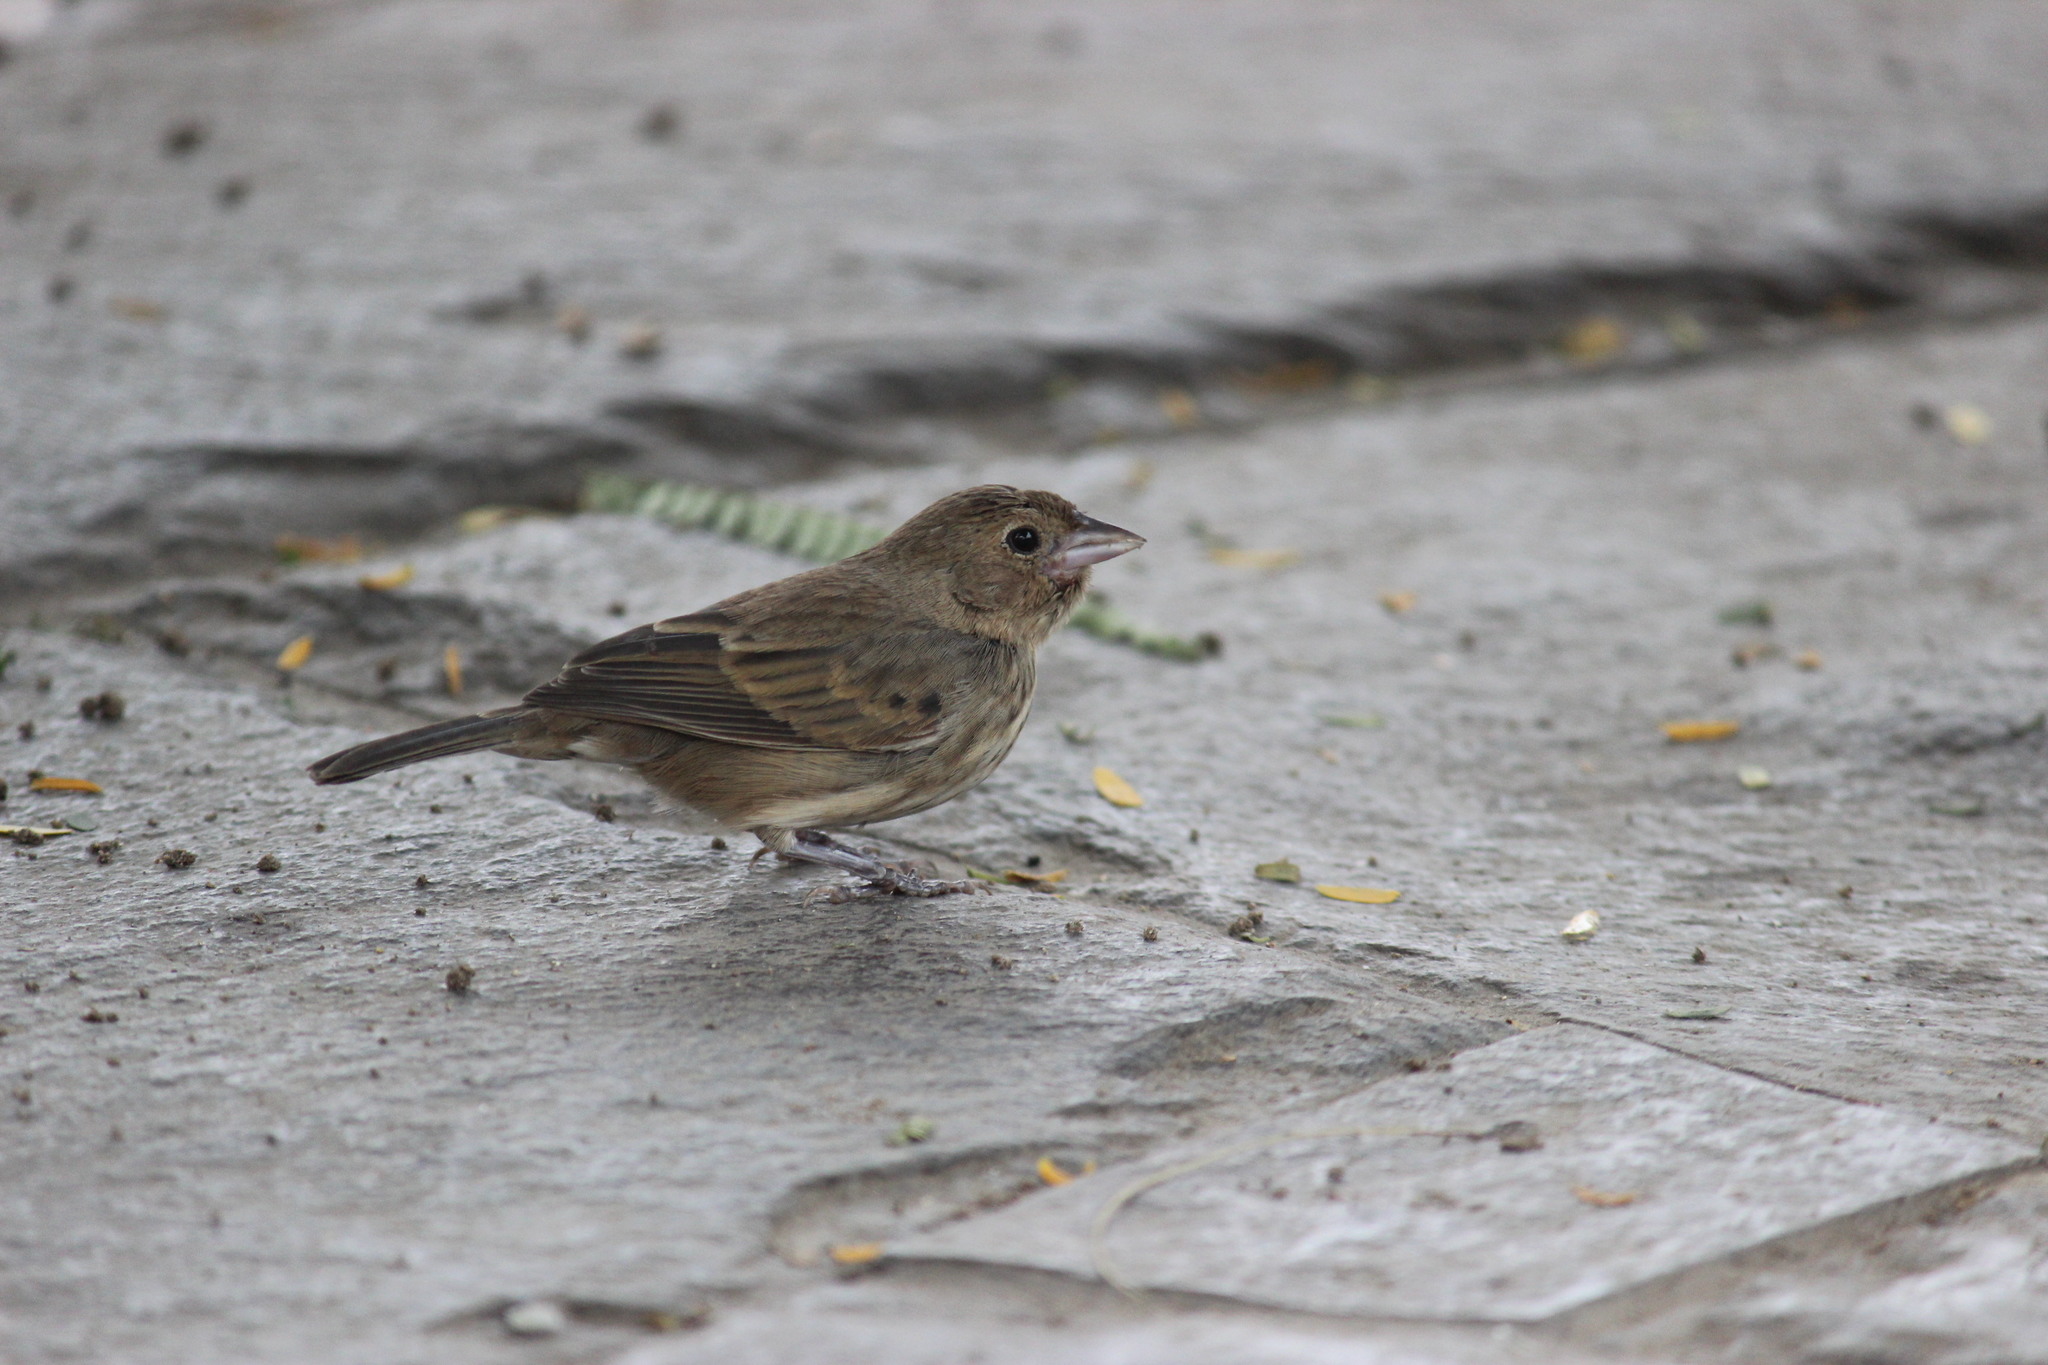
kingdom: Animalia
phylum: Chordata
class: Aves
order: Passeriformes
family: Thraupidae
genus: Volatinia
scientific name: Volatinia jacarina
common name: Blue-black grassquit
